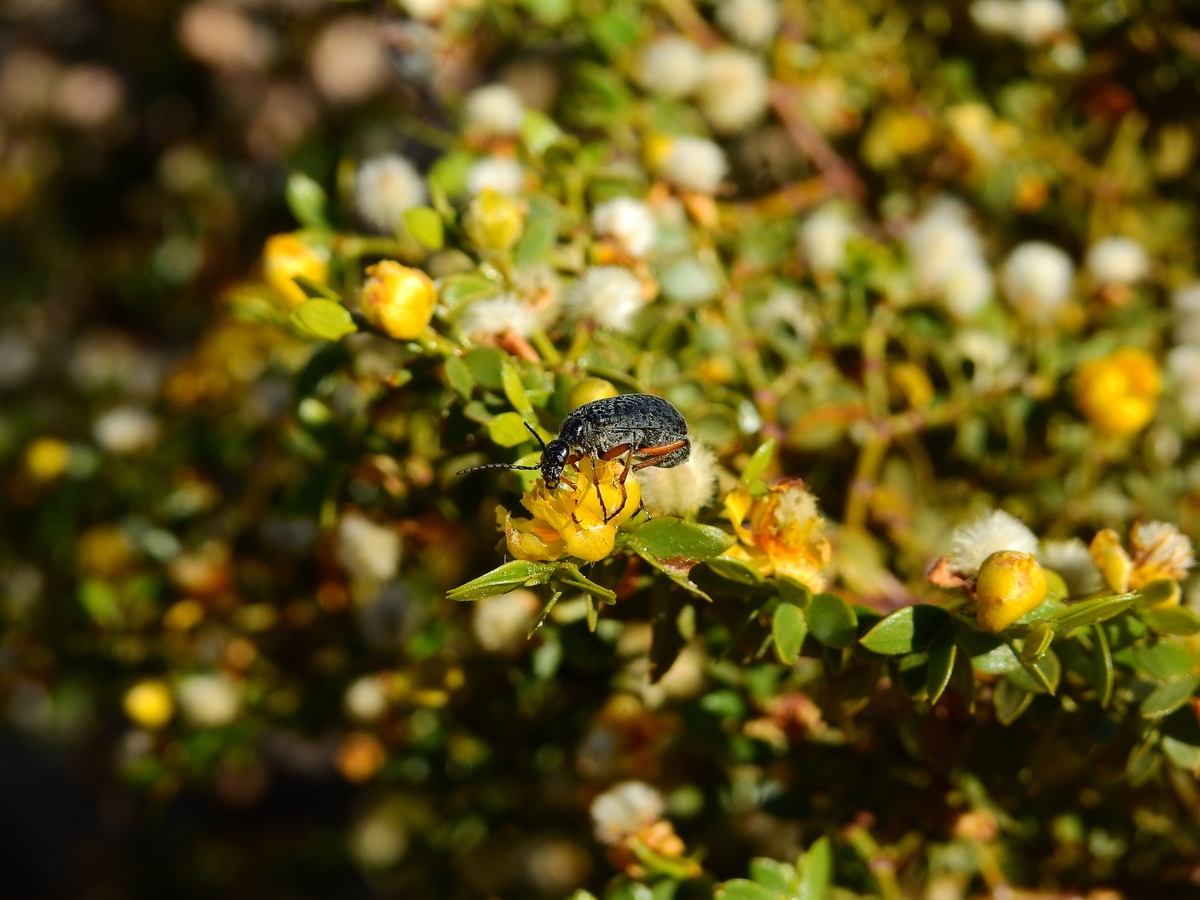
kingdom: Plantae
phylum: Tracheophyta
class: Magnoliopsida
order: Zygophyllales
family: Zygophyllaceae
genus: Larrea
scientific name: Larrea divaricata
